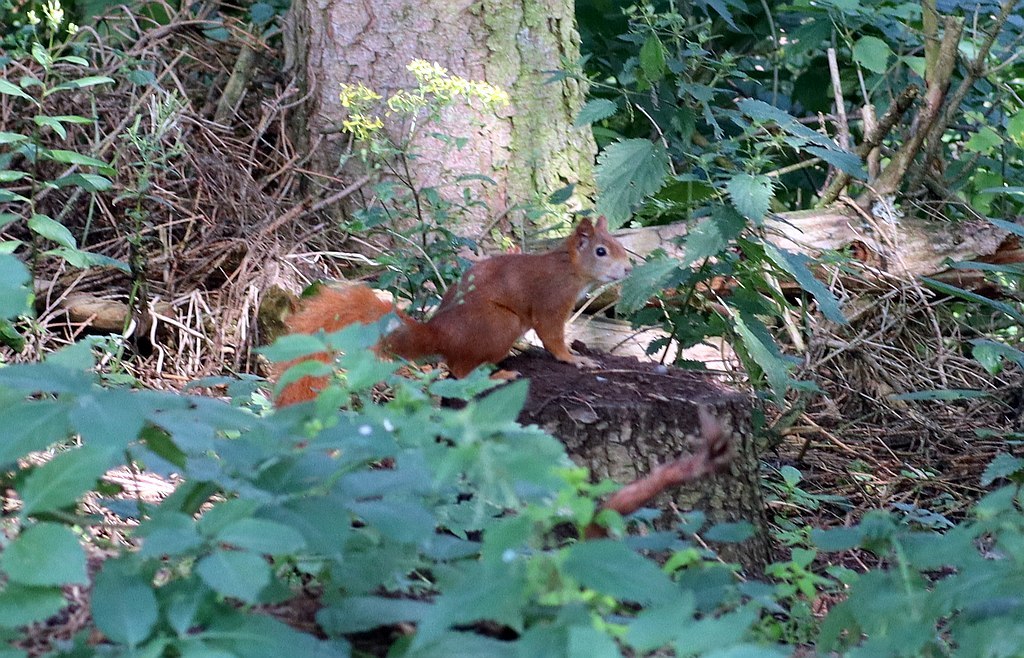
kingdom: Animalia
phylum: Chordata
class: Mammalia
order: Rodentia
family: Sciuridae
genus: Sciurus
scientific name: Sciurus vulgaris
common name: Eurasian red squirrel
